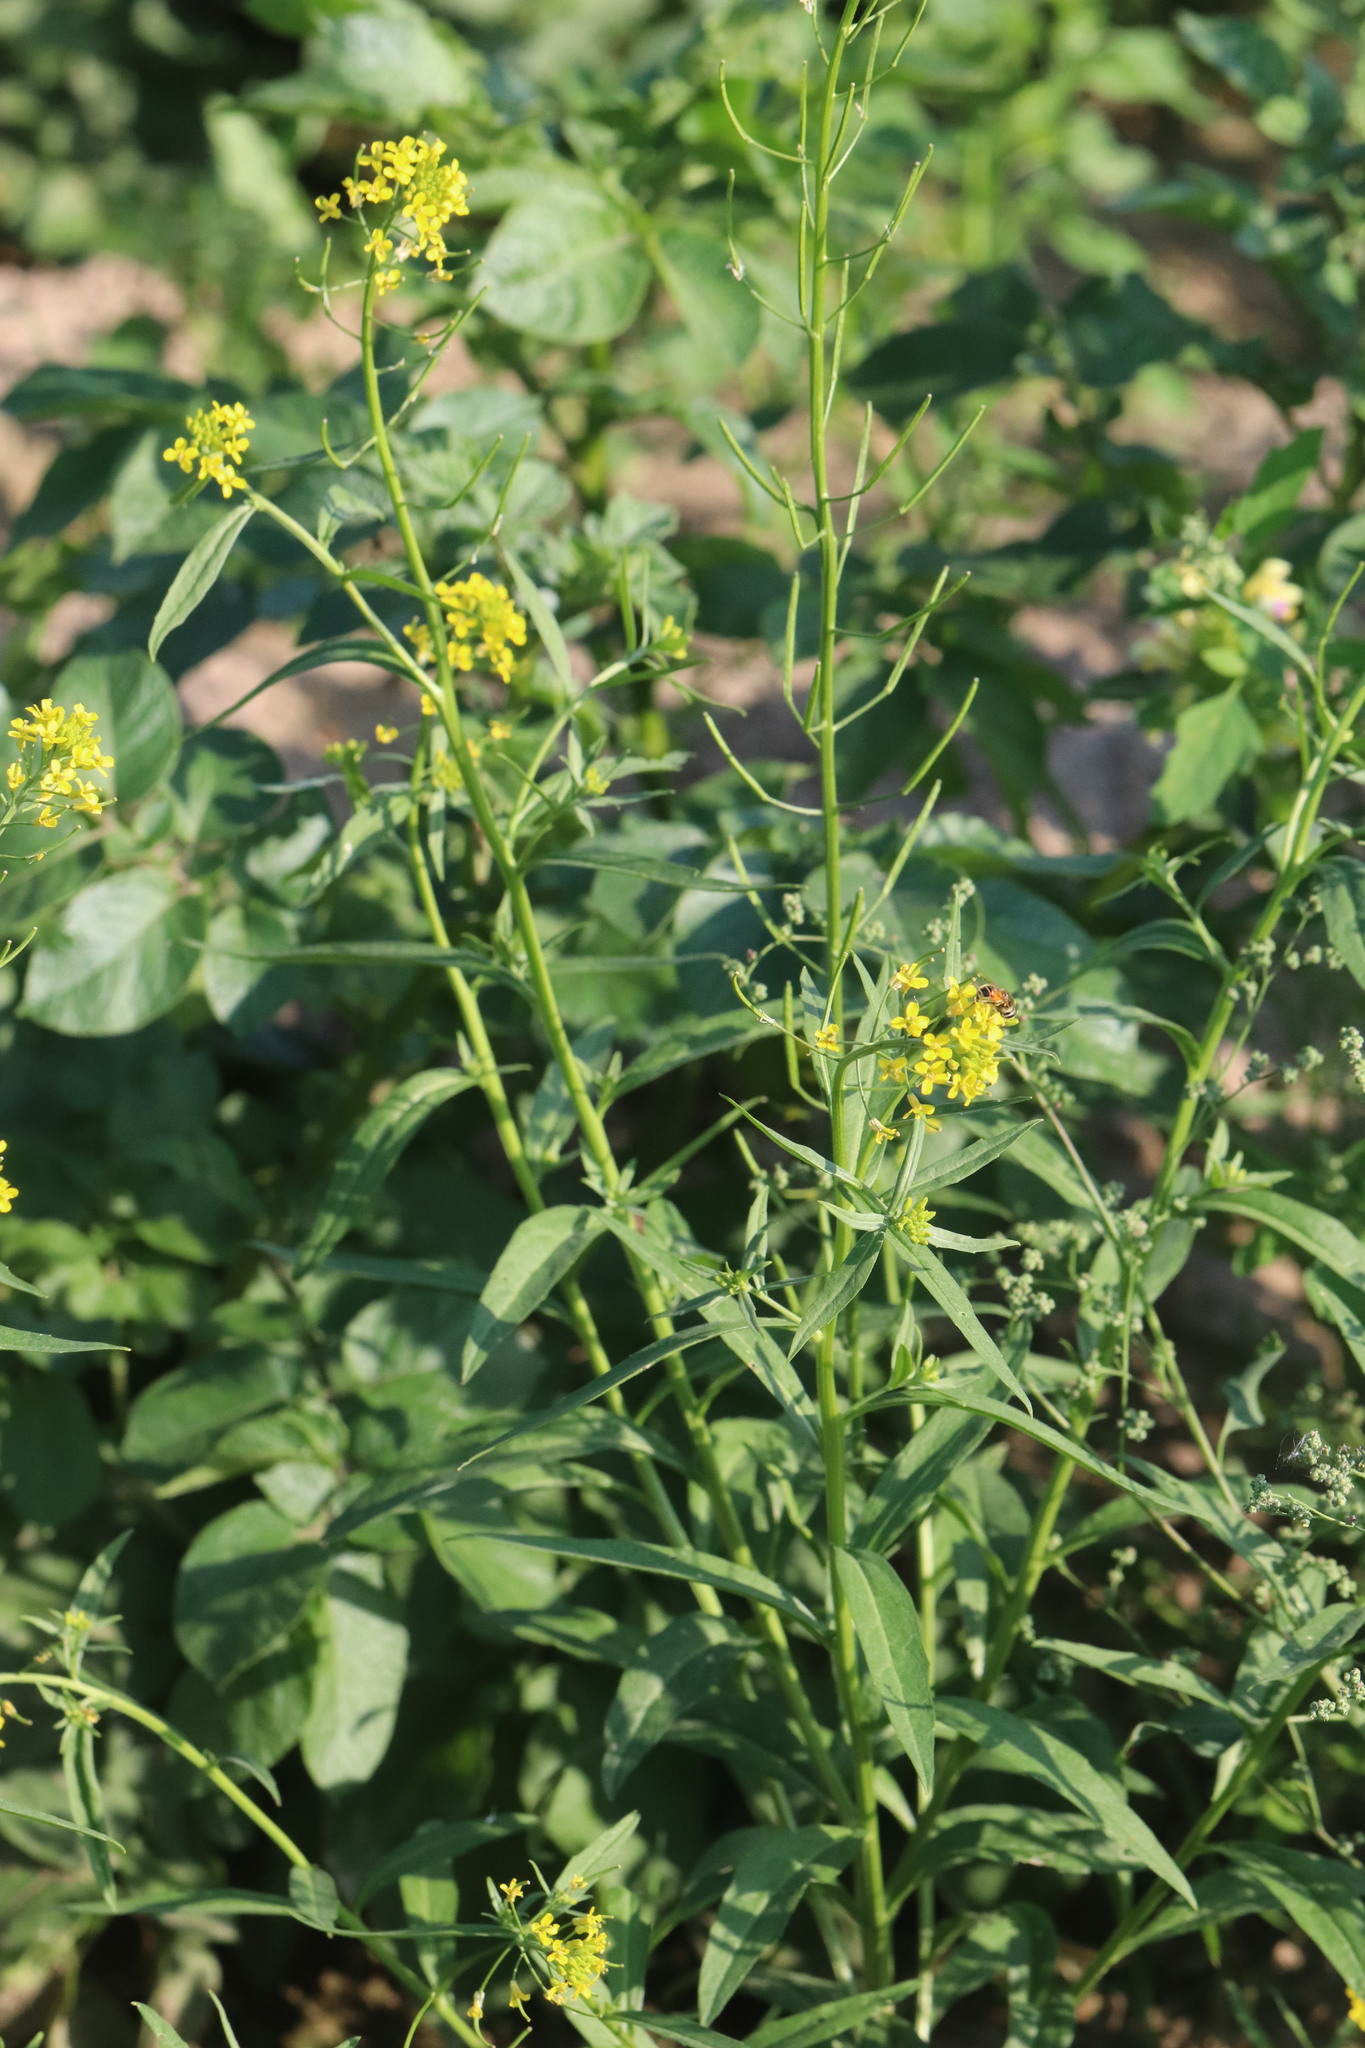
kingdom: Plantae
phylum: Tracheophyta
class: Magnoliopsida
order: Brassicales
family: Brassicaceae
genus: Erysimum
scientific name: Erysimum cheiranthoides
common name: Treacle mustard
